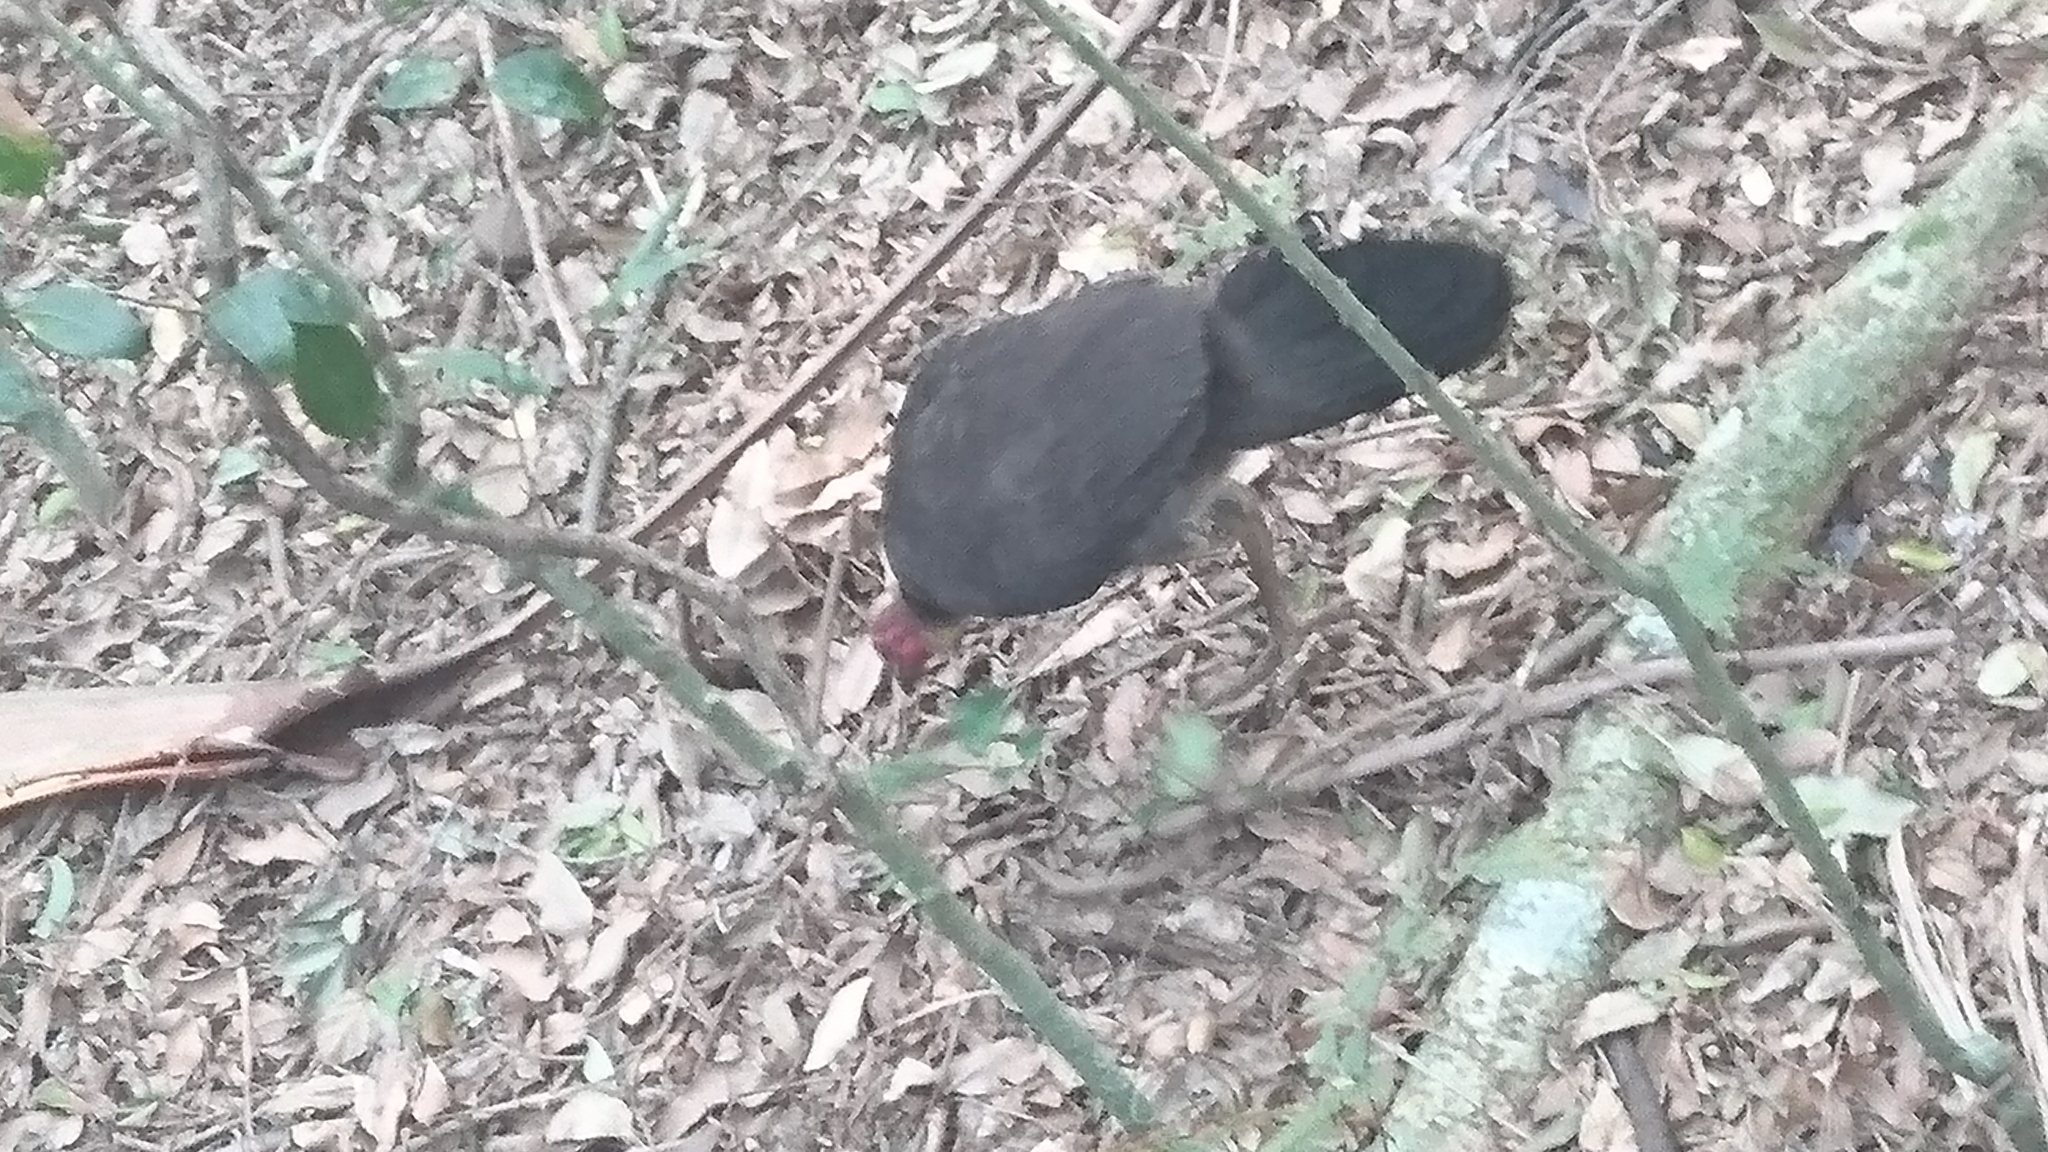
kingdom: Animalia
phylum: Chordata
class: Aves
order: Galliformes
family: Megapodiidae
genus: Alectura
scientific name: Alectura lathami
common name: Australian brushturkey
